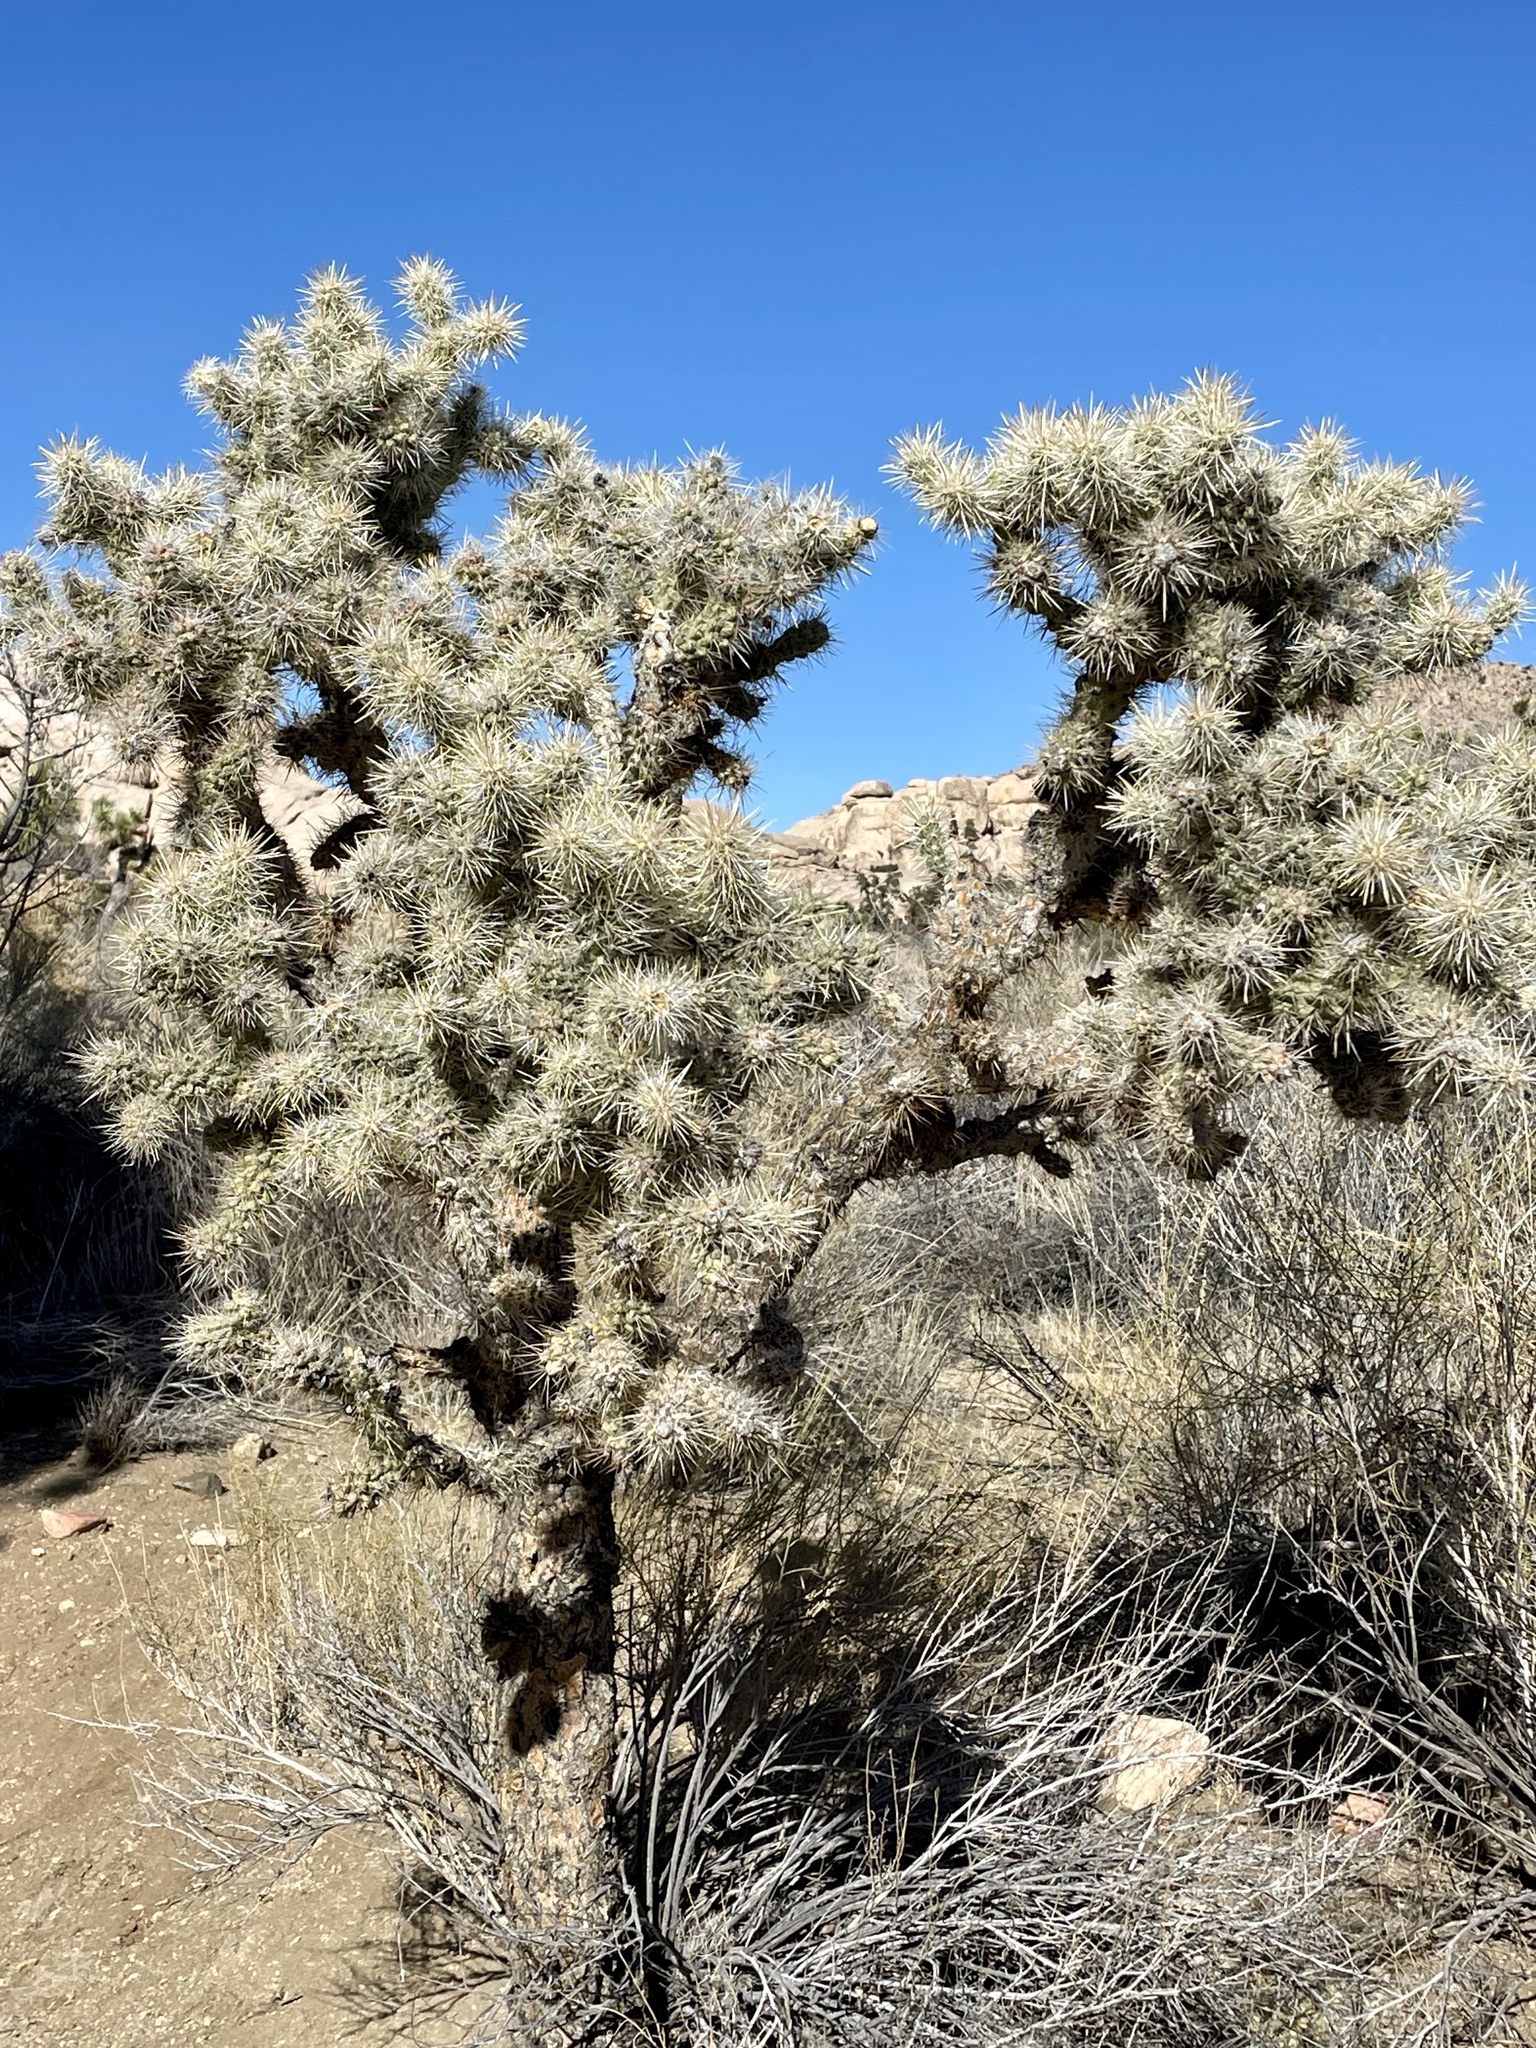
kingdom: Plantae
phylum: Tracheophyta
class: Magnoliopsida
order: Caryophyllales
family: Cactaceae
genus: Cylindropuntia
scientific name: Cylindropuntia echinocarpa
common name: Ground cholla
